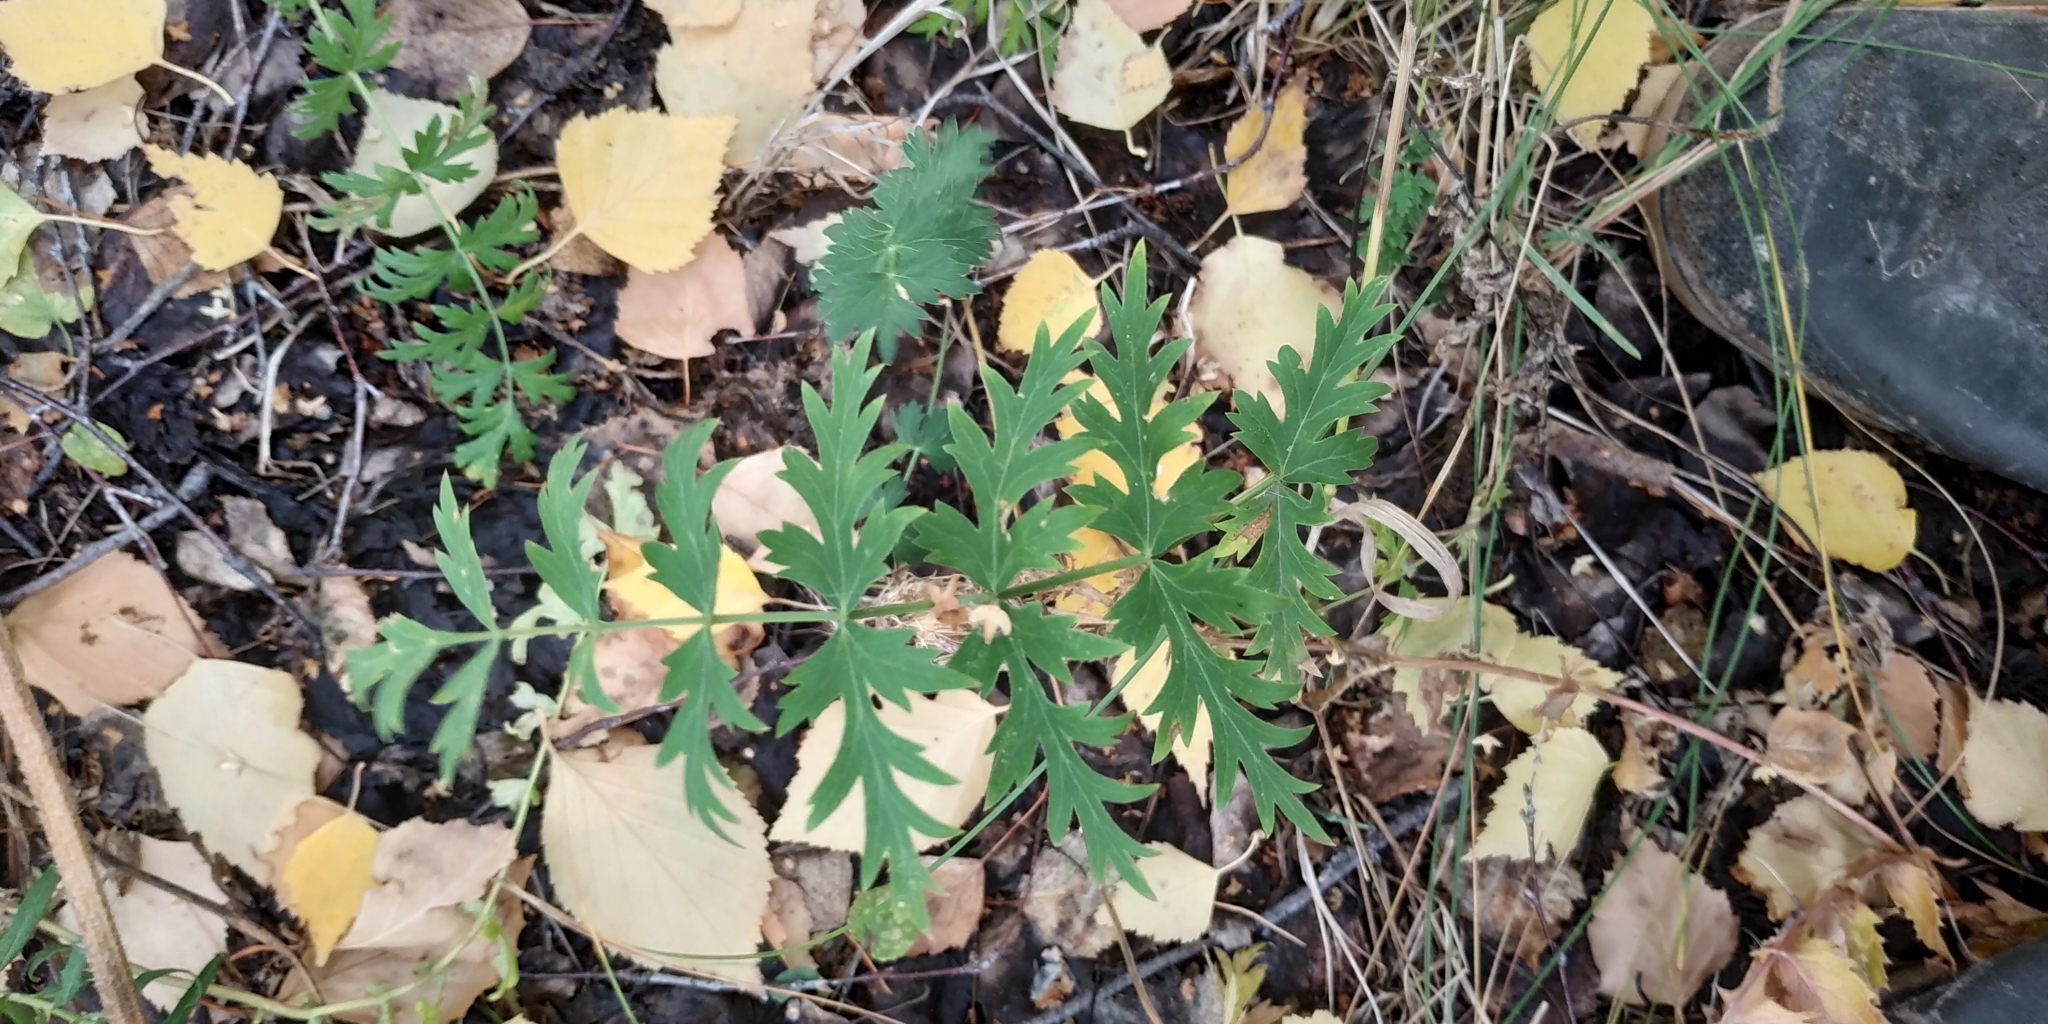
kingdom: Plantae
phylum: Tracheophyta
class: Magnoliopsida
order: Apiales
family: Apiaceae
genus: Seseli
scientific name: Seseli libanotis
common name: Mooncarrot
